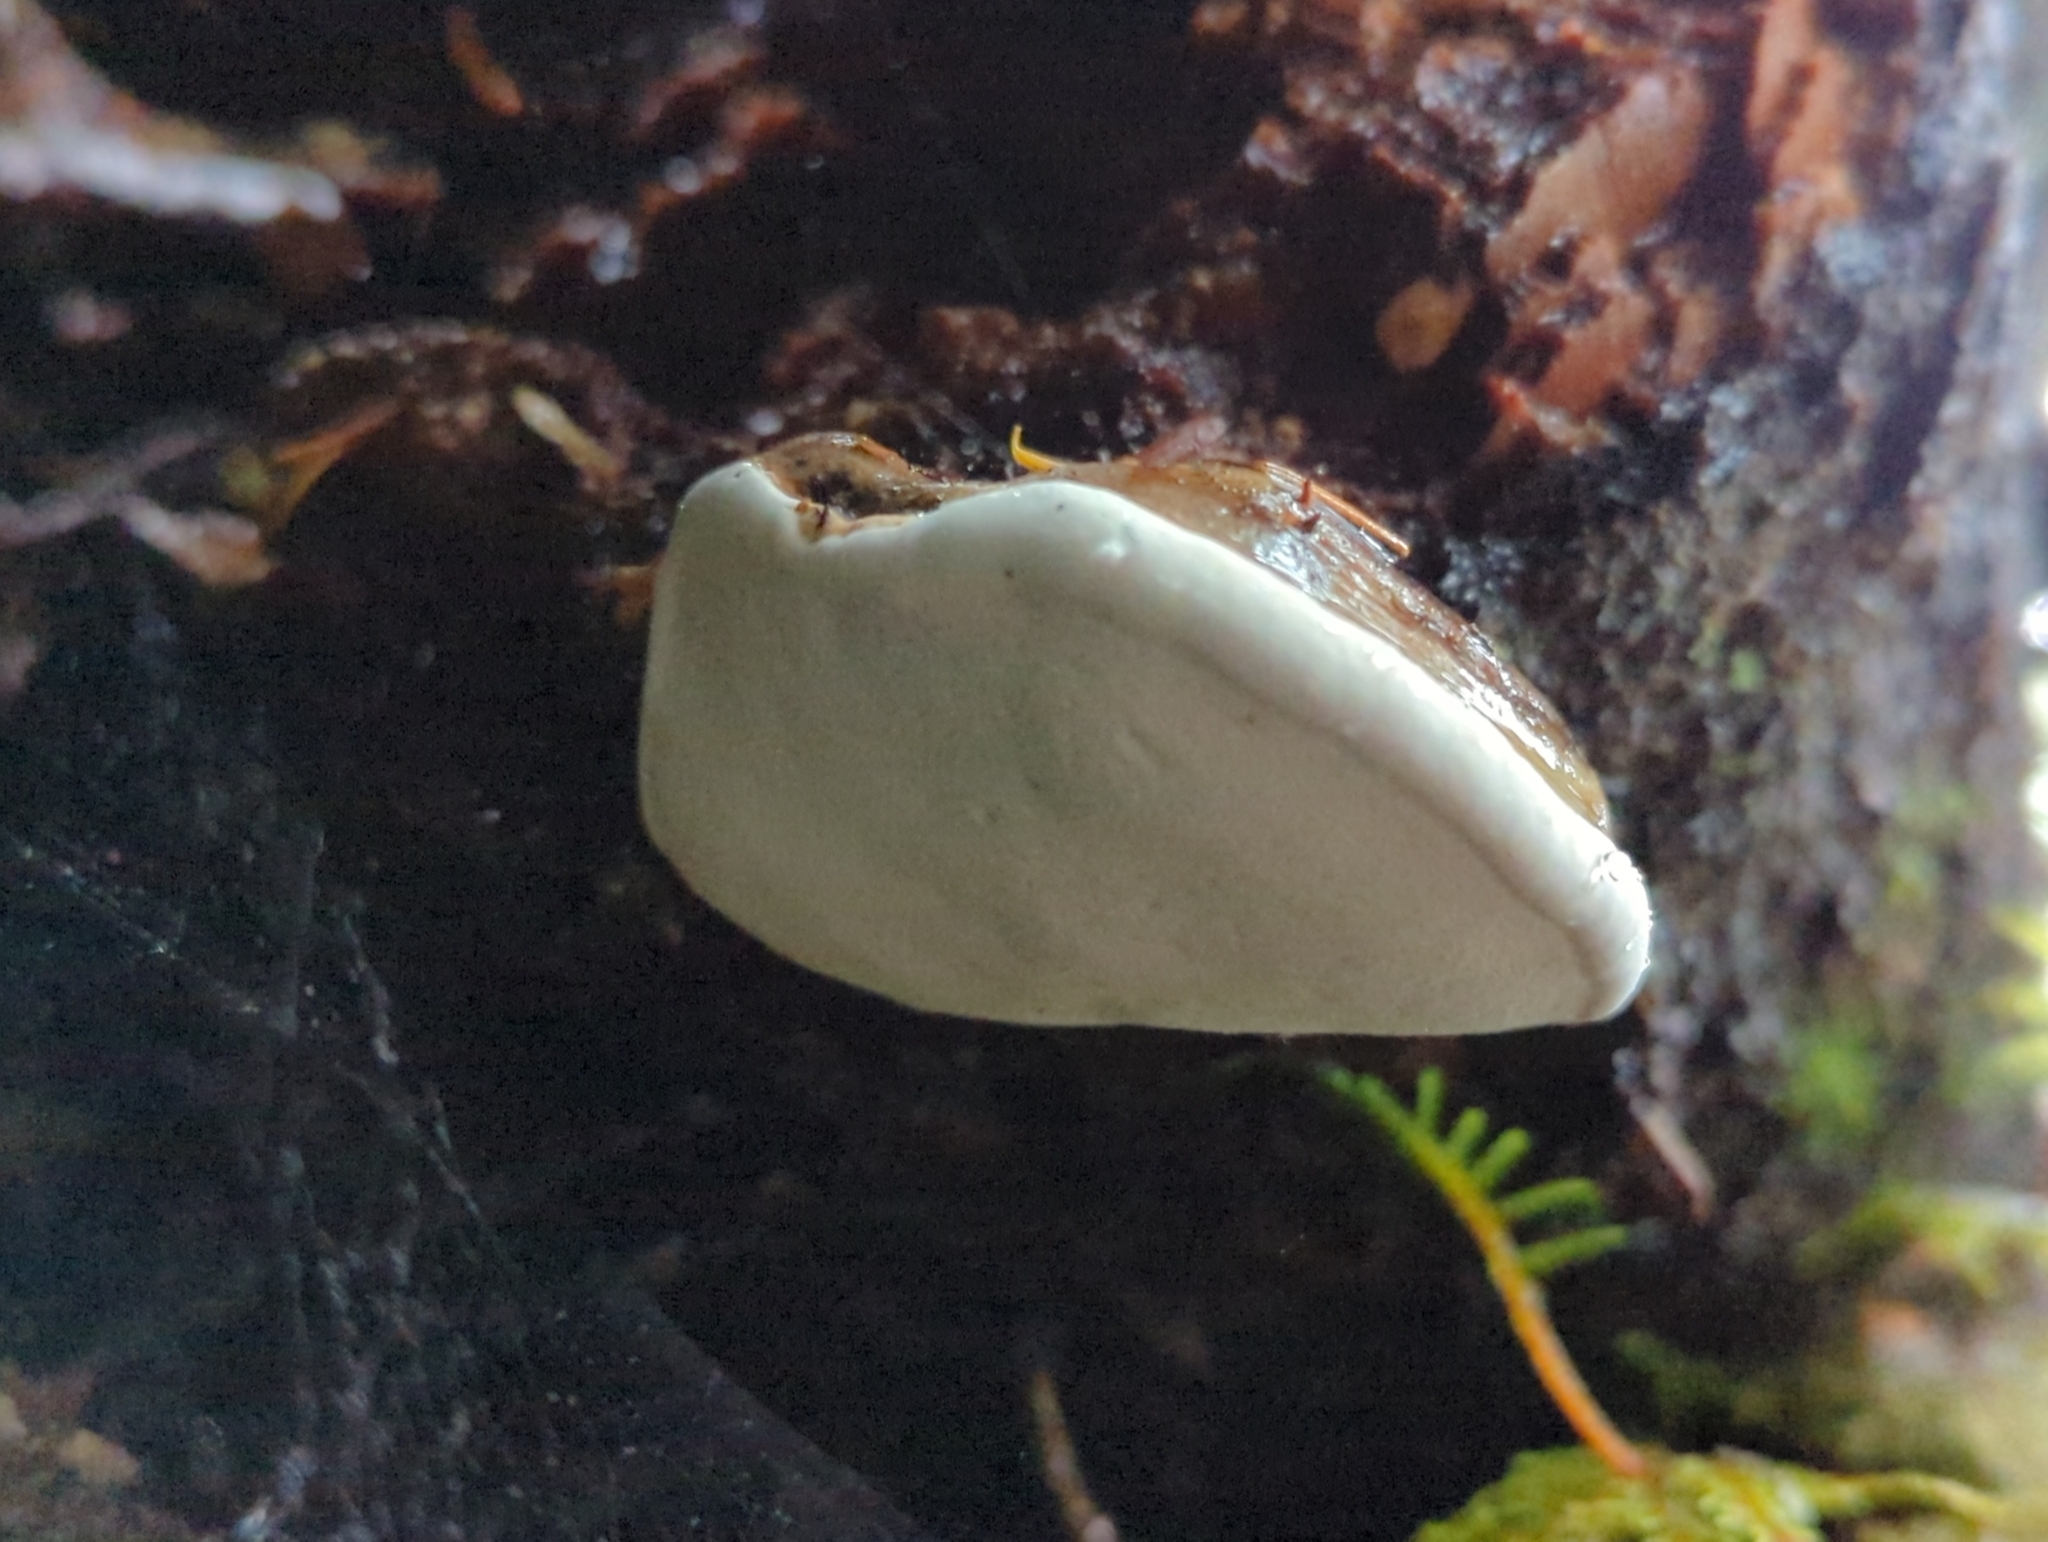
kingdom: Fungi
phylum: Basidiomycota
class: Agaricomycetes
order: Polyporales
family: Fomitopsidaceae
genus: Fomitopsis
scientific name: Fomitopsis ochracea
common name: American brown fomitopsis
